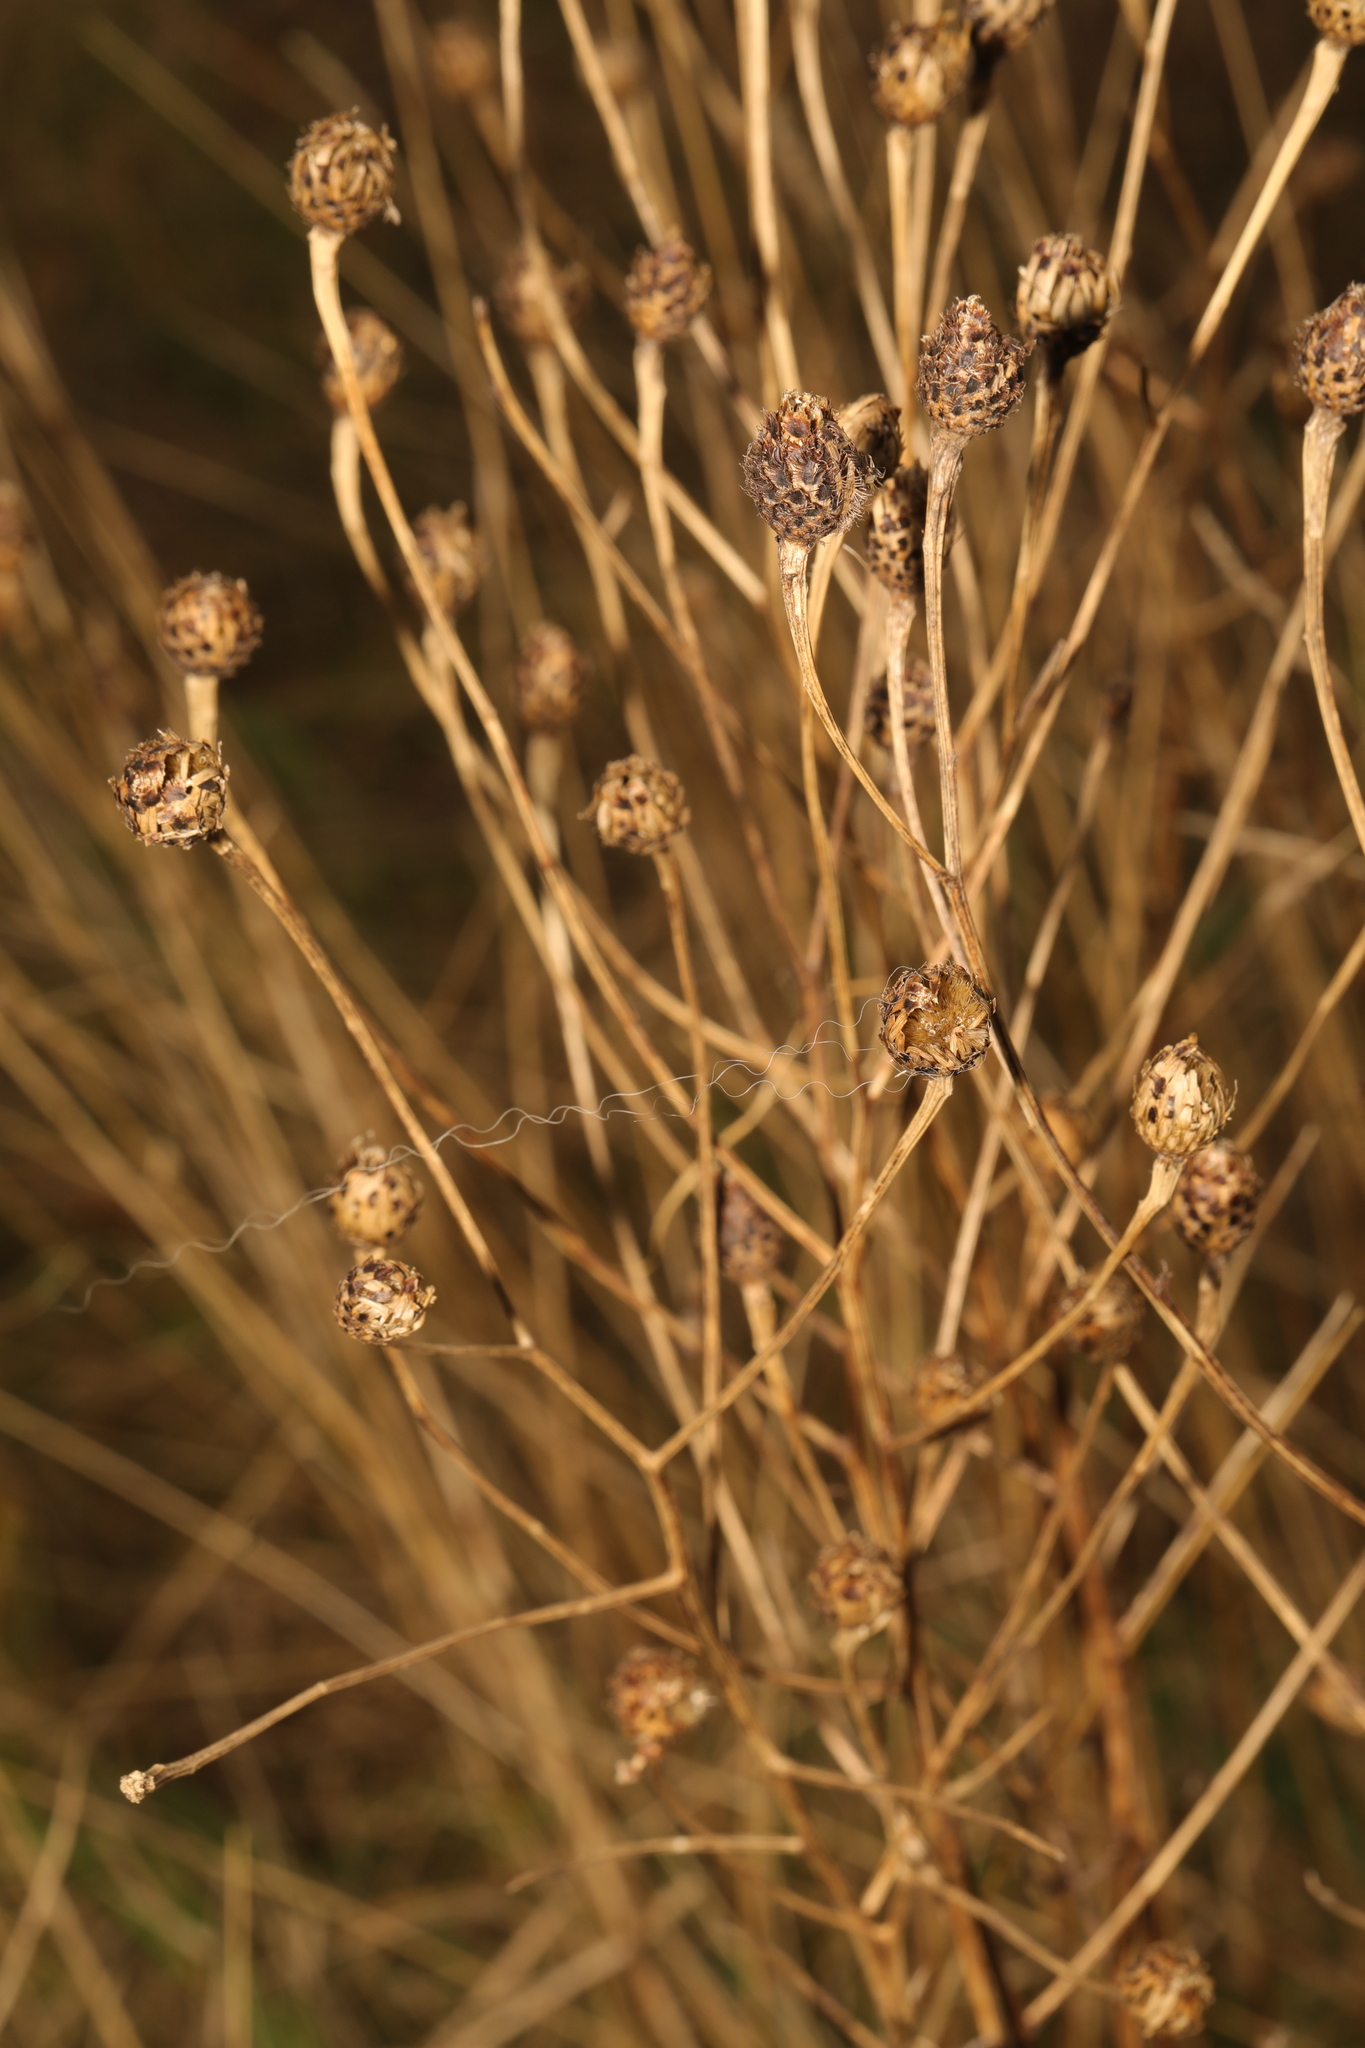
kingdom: Plantae
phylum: Tracheophyta
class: Magnoliopsida
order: Asterales
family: Asteraceae
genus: Centaurea
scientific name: Centaurea nigra
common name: Lesser knapweed
